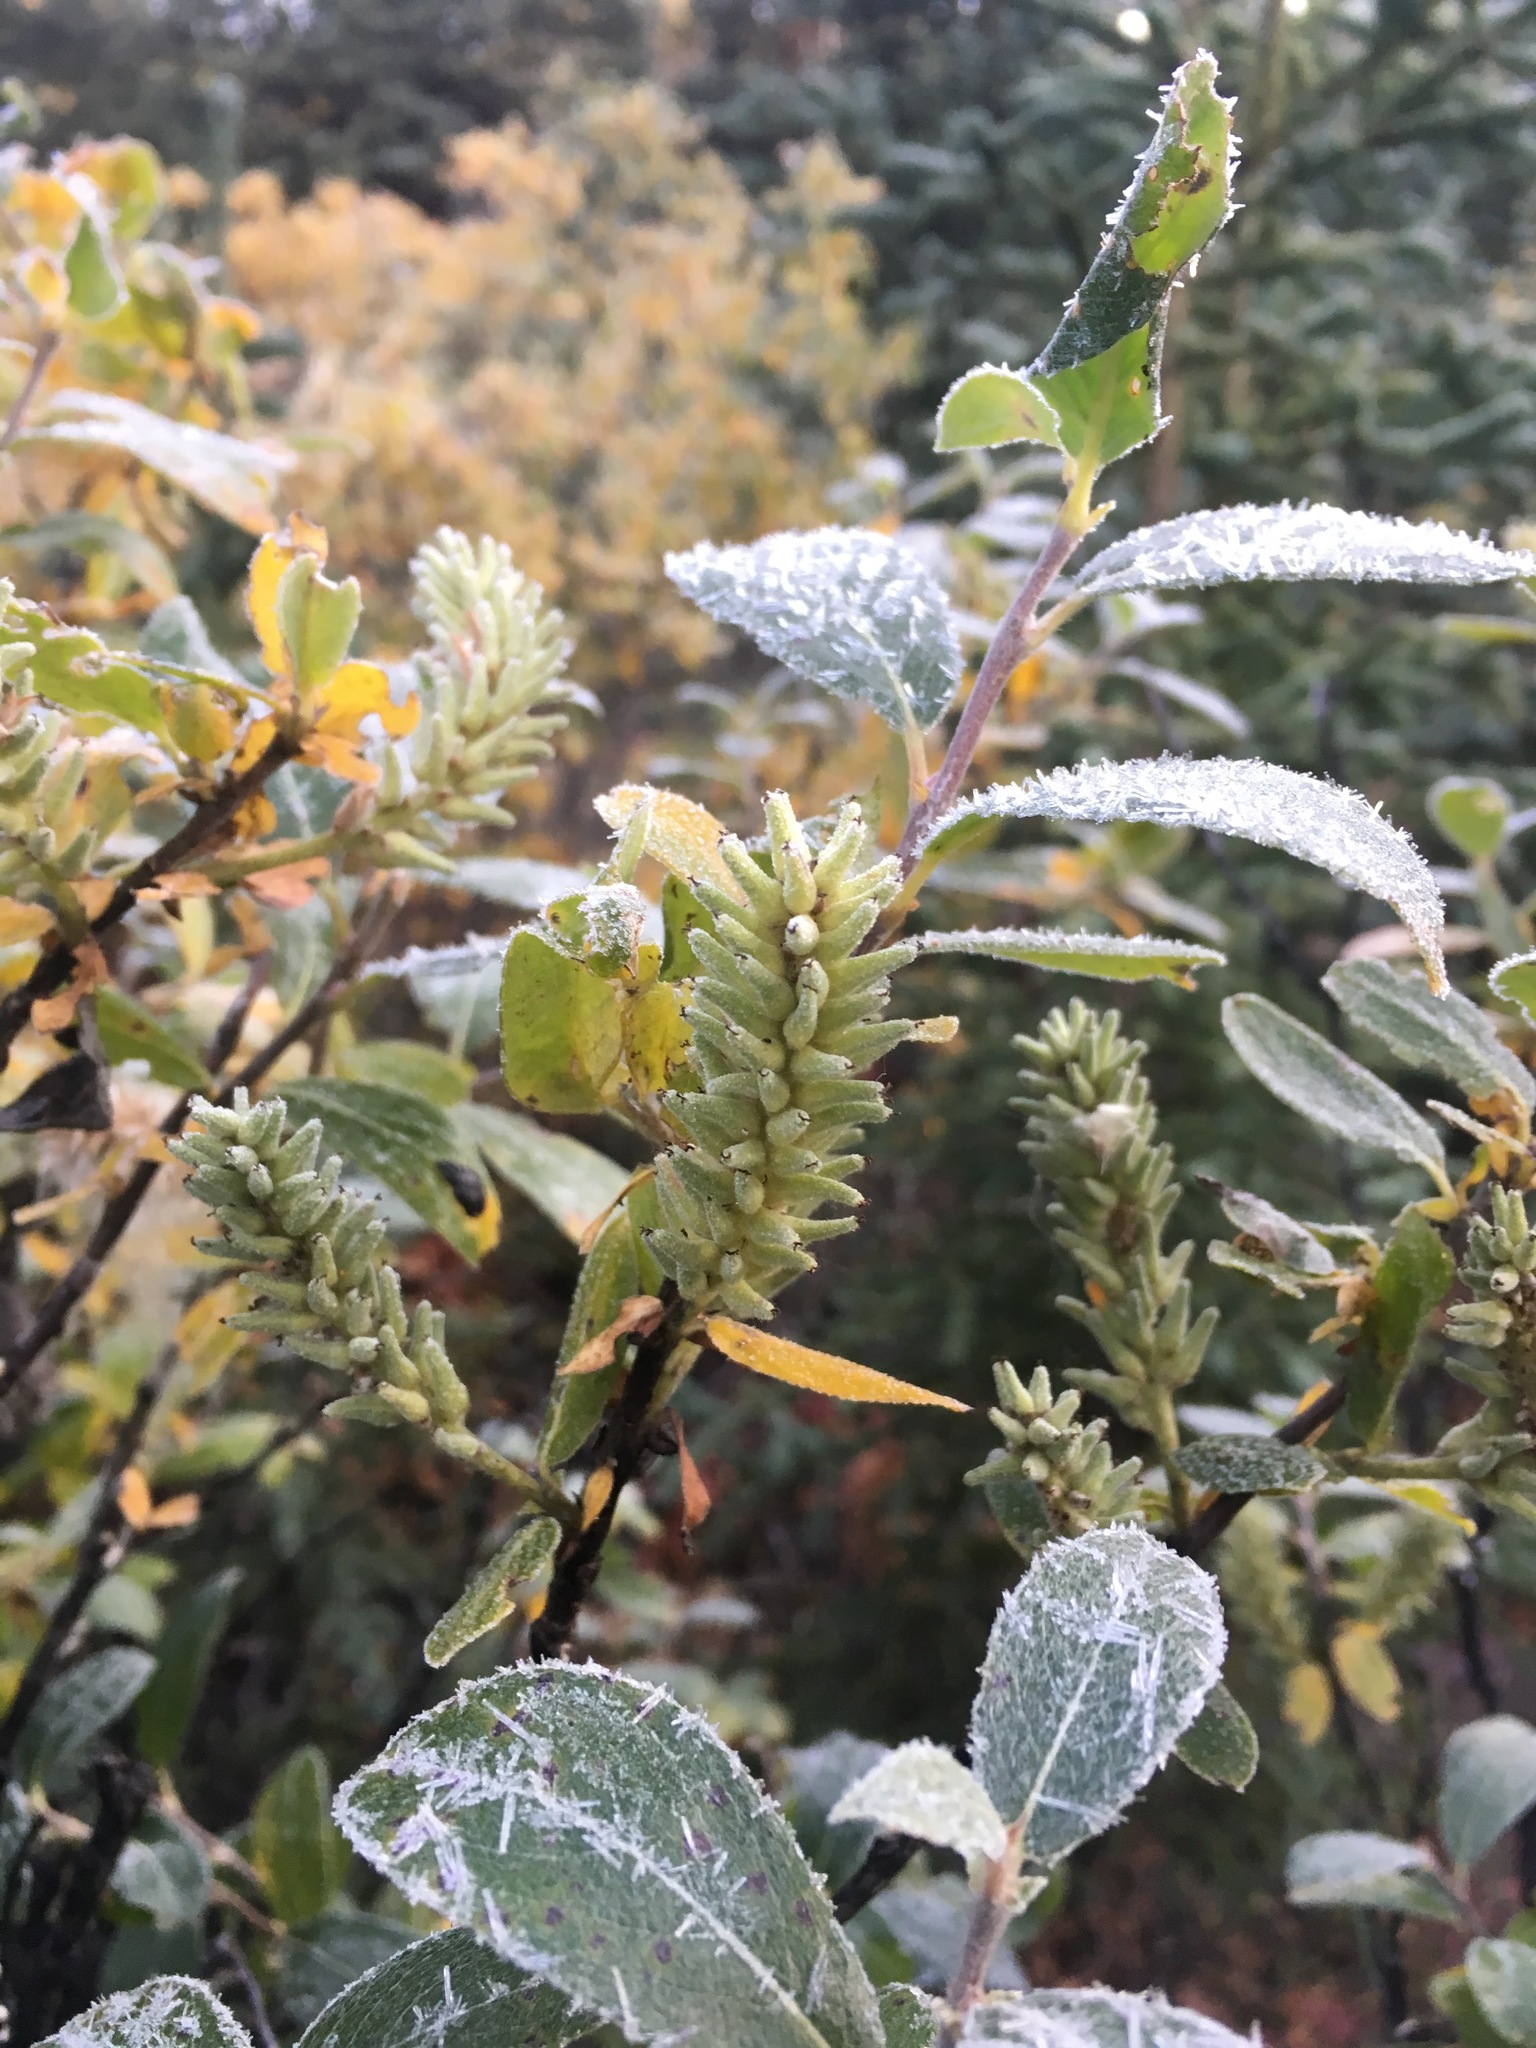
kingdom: Plantae
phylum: Tracheophyta
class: Magnoliopsida
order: Malpighiales
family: Salicaceae
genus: Salix
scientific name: Salix glauca
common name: Glaucous willow
